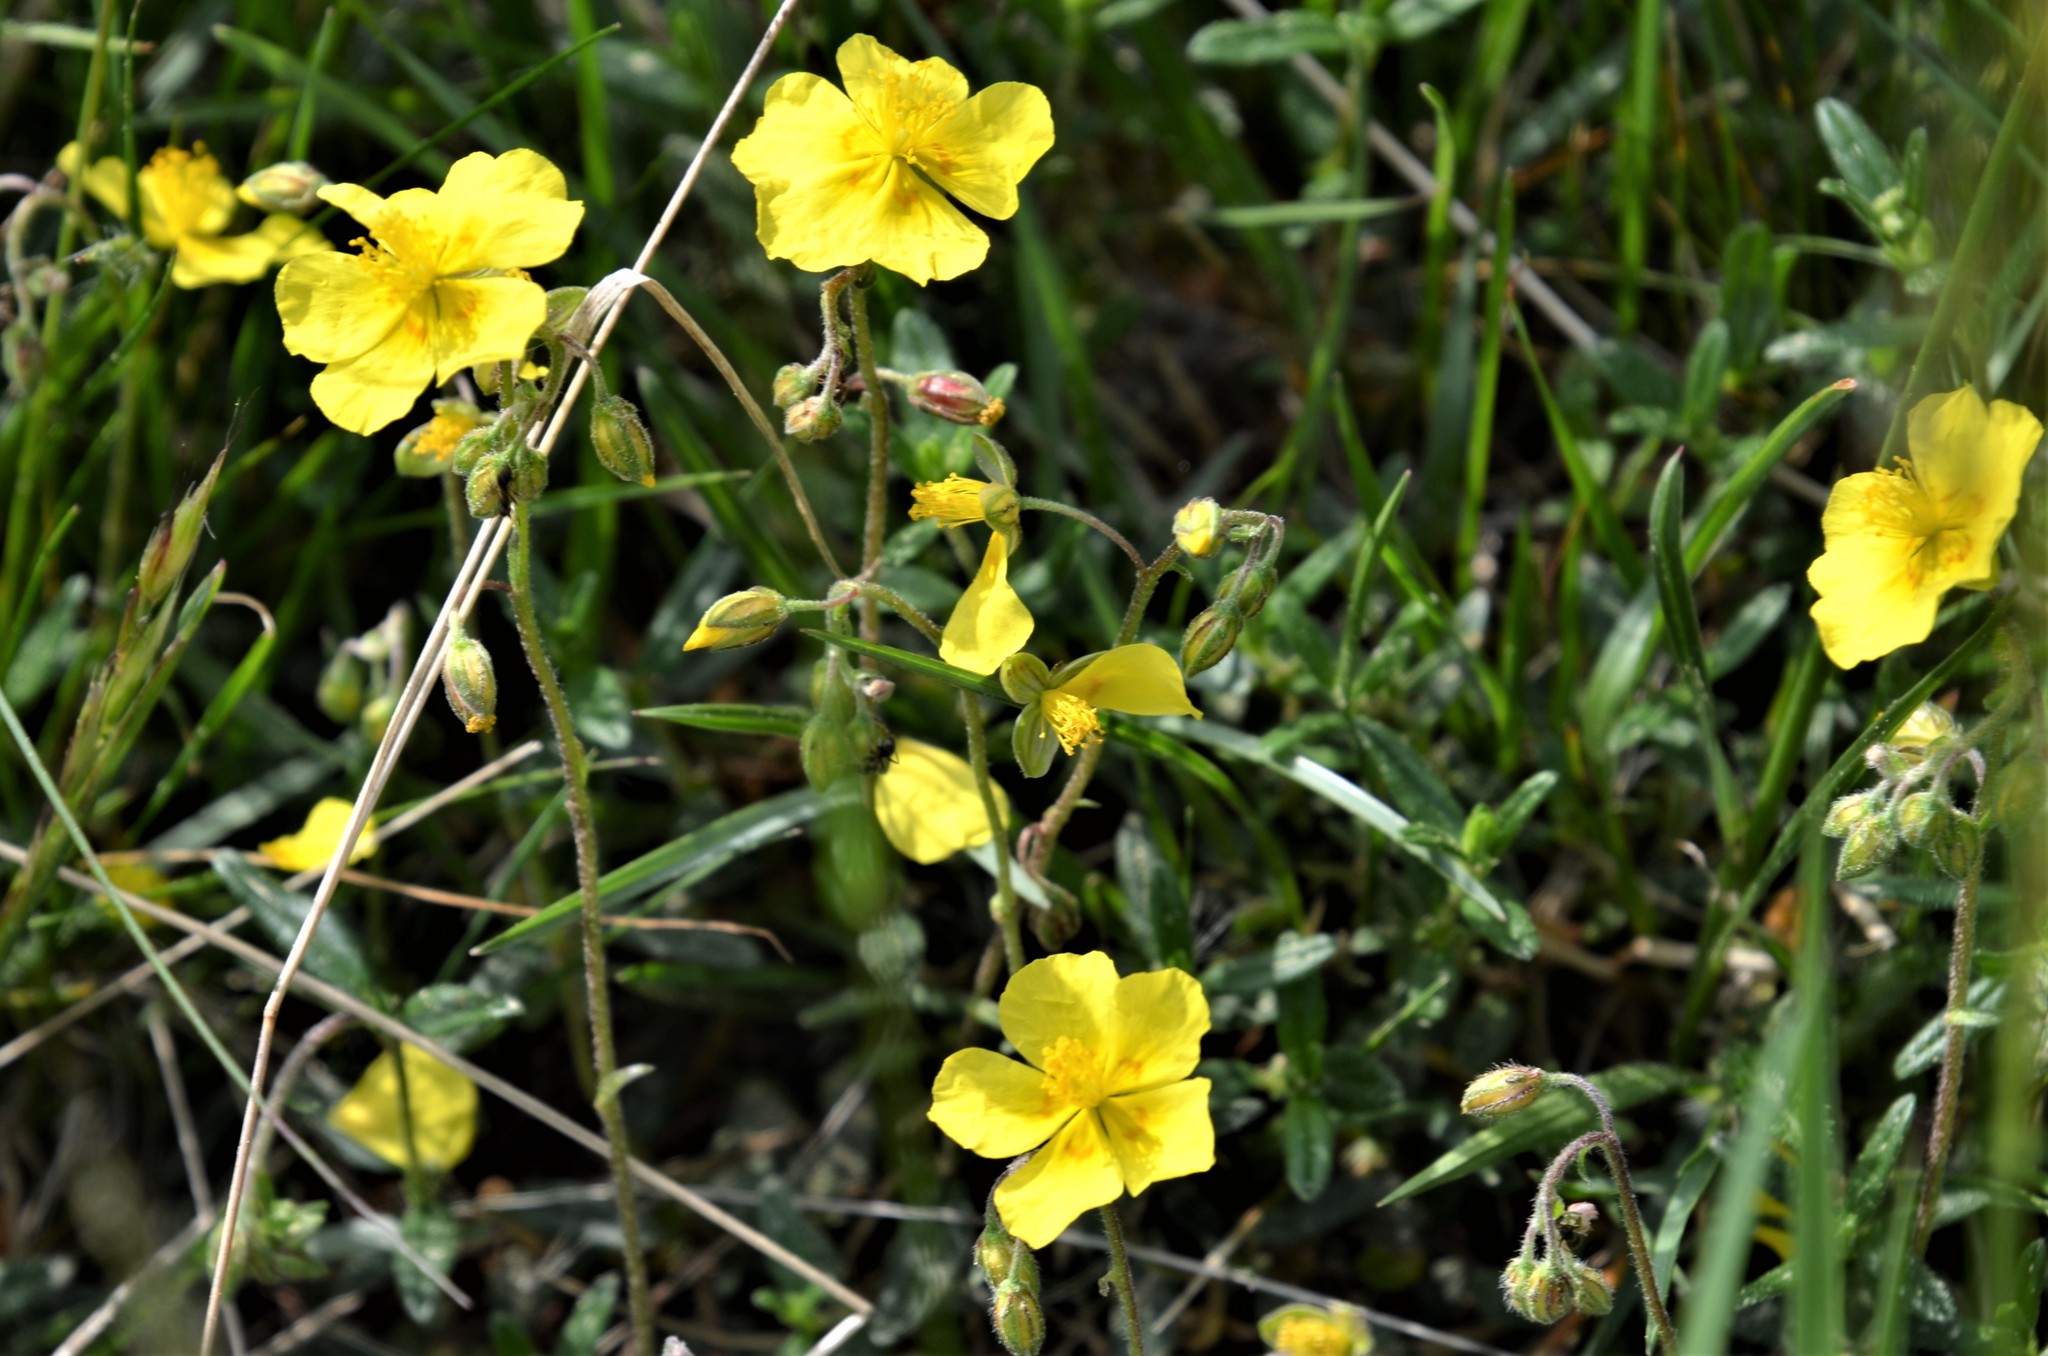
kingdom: Plantae
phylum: Tracheophyta
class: Magnoliopsida
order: Malvales
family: Cistaceae
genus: Helianthemum
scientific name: Helianthemum nummularium
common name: Common rock-rose
